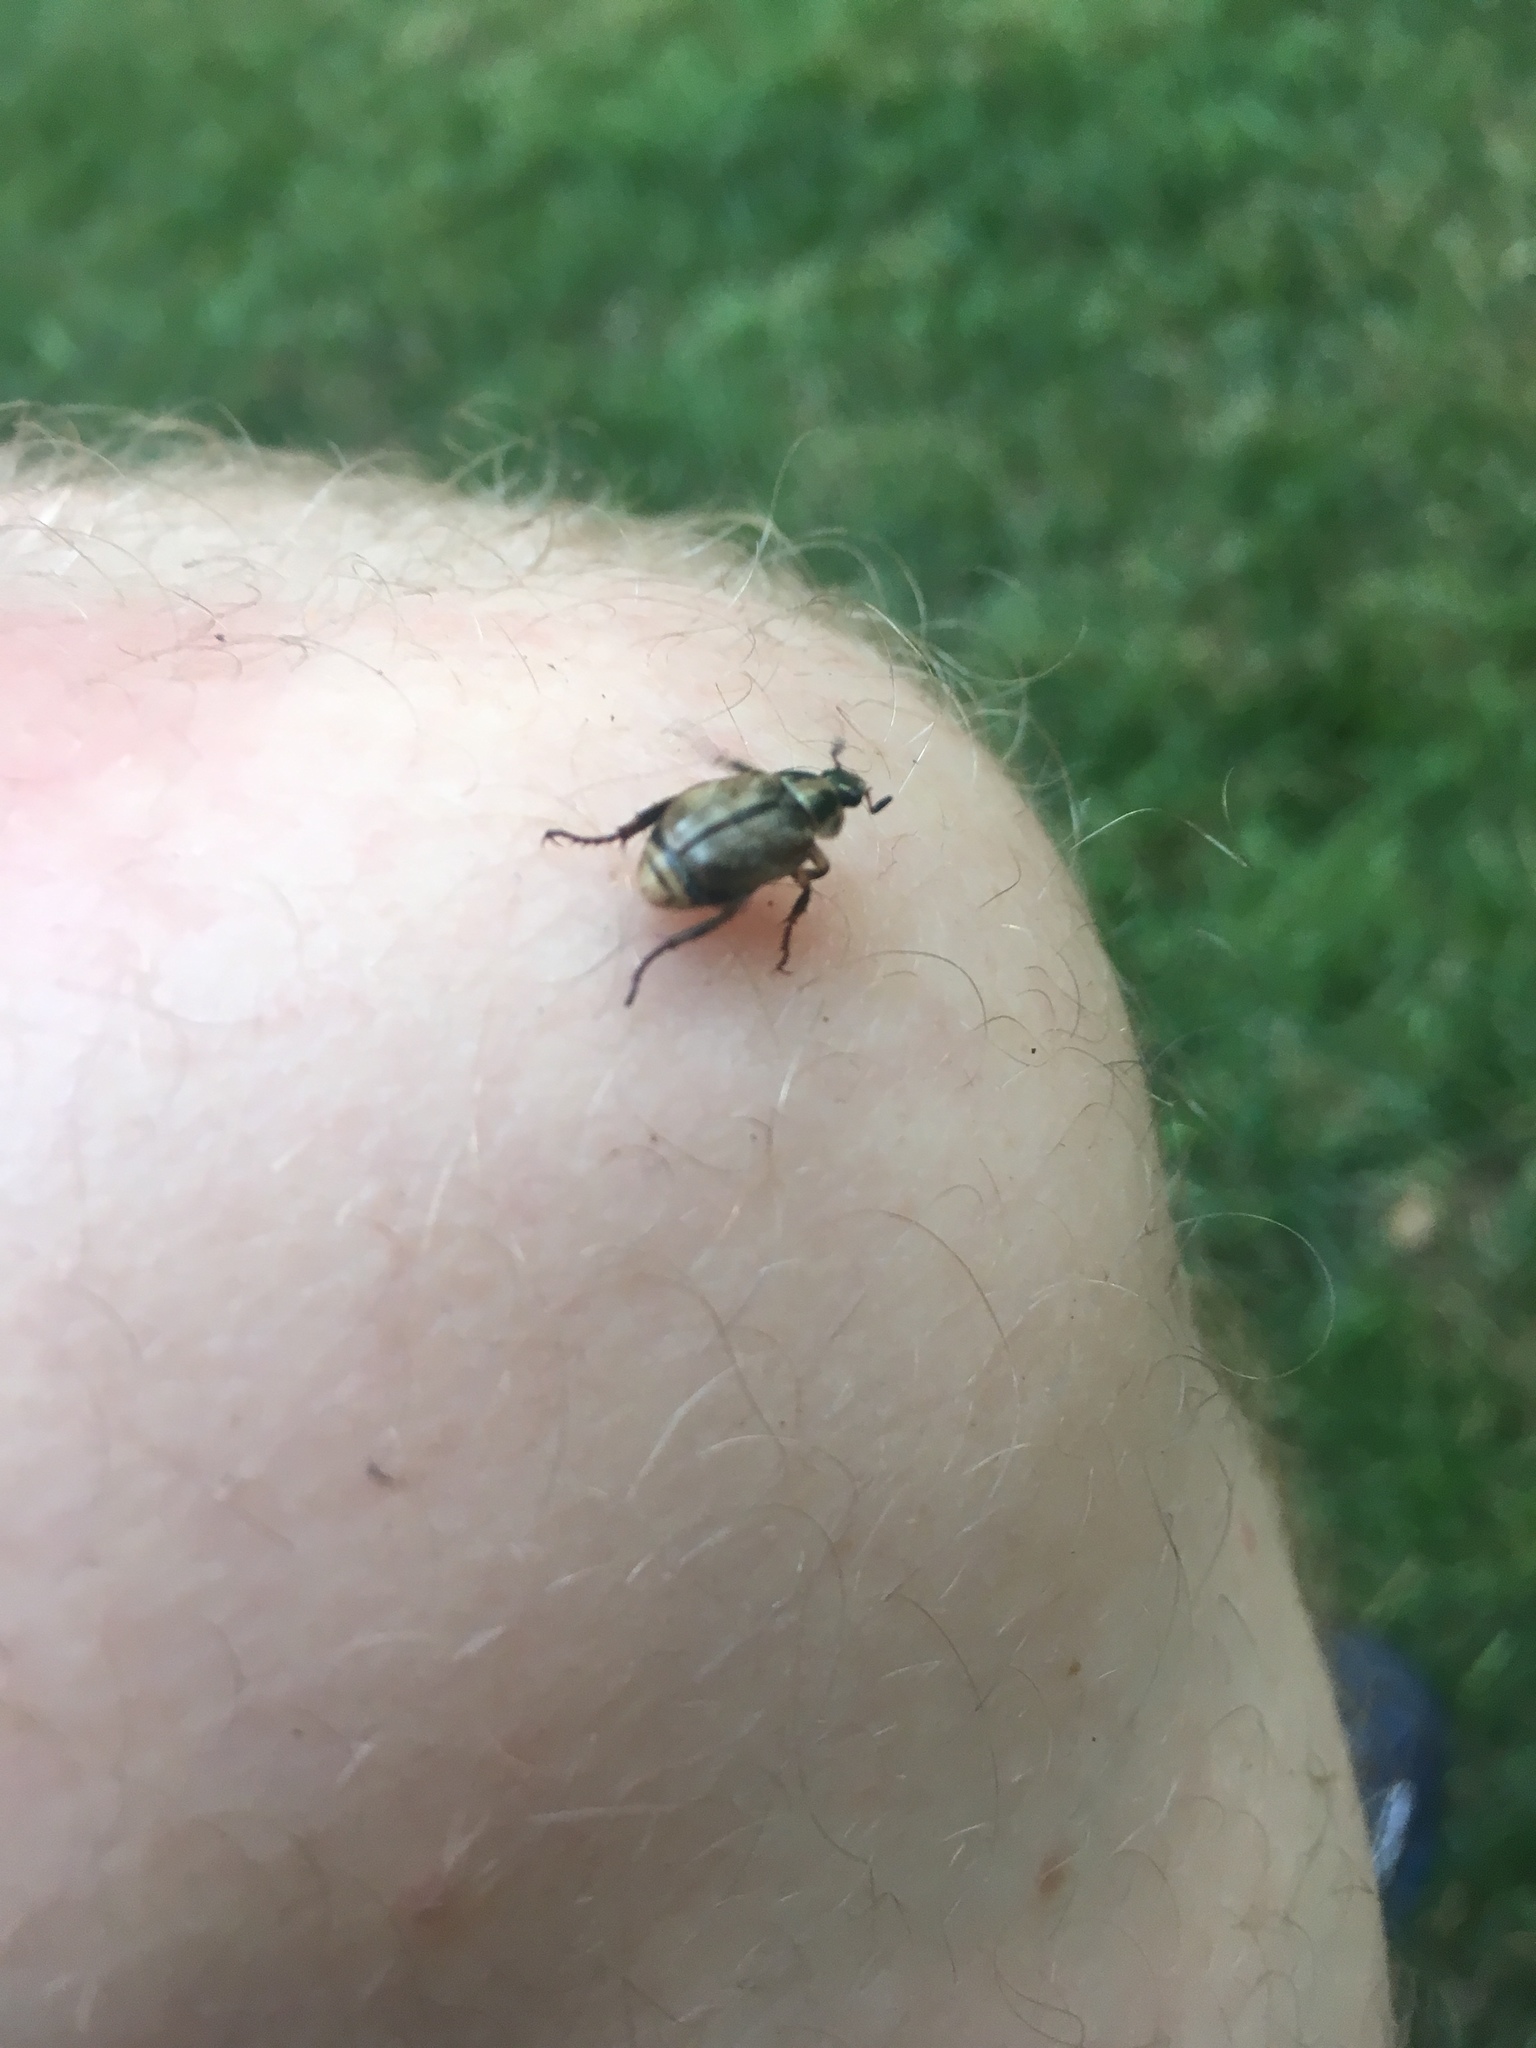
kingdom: Animalia
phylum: Arthropoda
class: Insecta
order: Coleoptera
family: Scarabaeidae
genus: Exomala
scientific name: Exomala orientalis
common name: Oriental beetle
